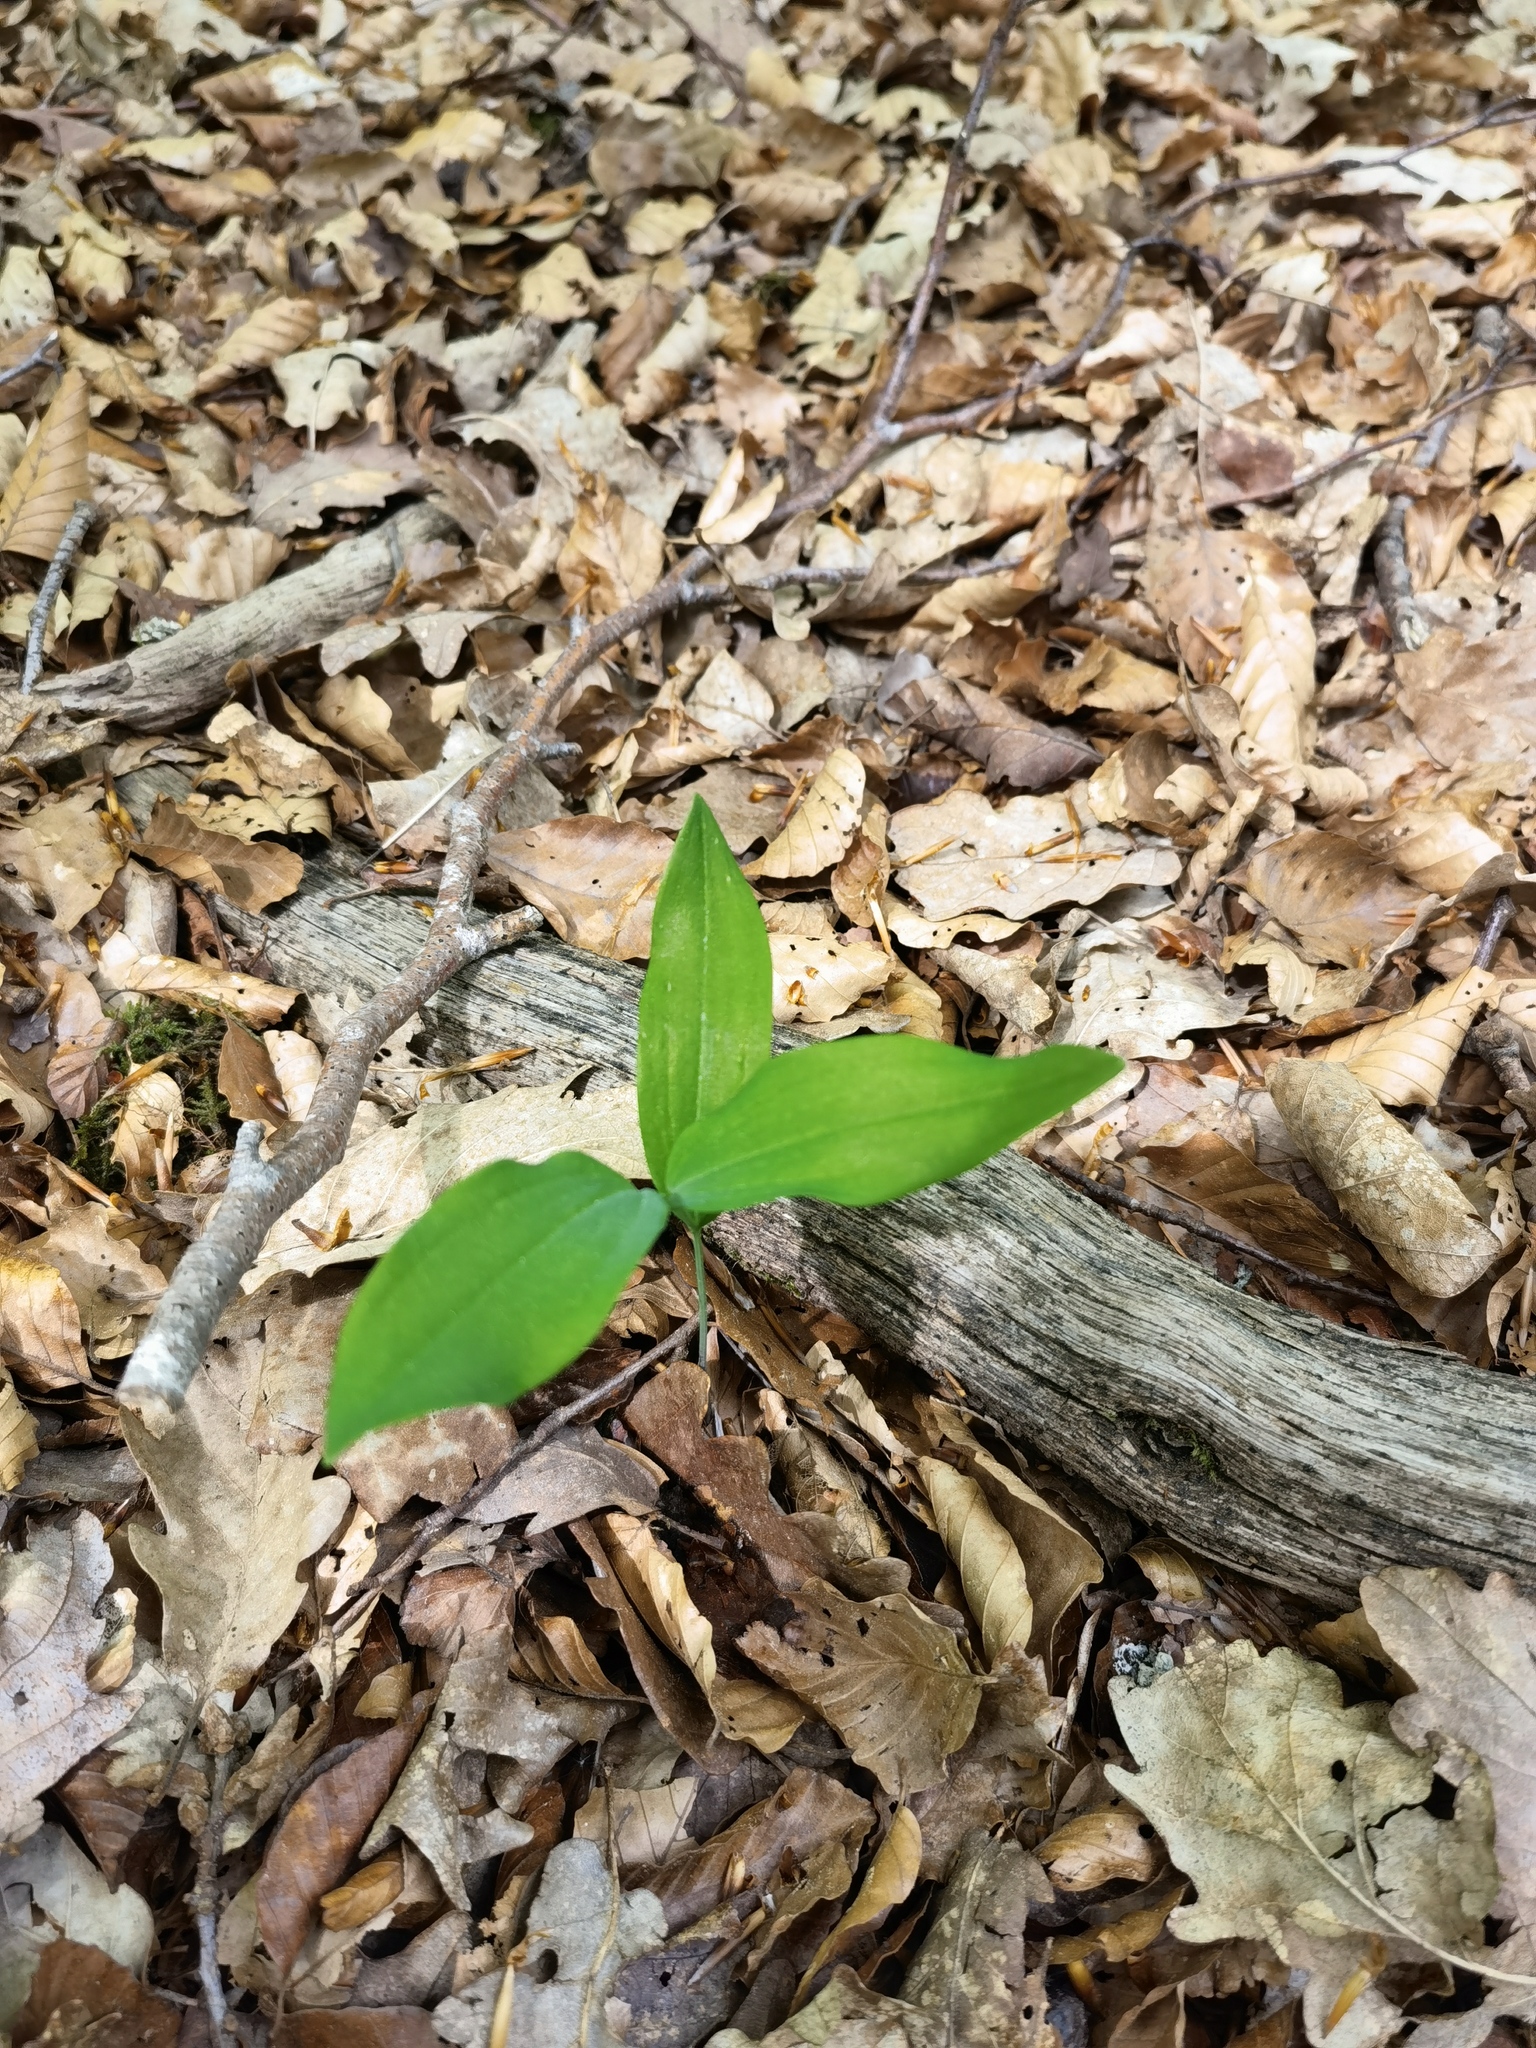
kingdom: Plantae
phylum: Tracheophyta
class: Liliopsida
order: Asparagales
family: Asparagaceae
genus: Convallaria
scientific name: Convallaria majalis
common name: Lily-of-the-valley
